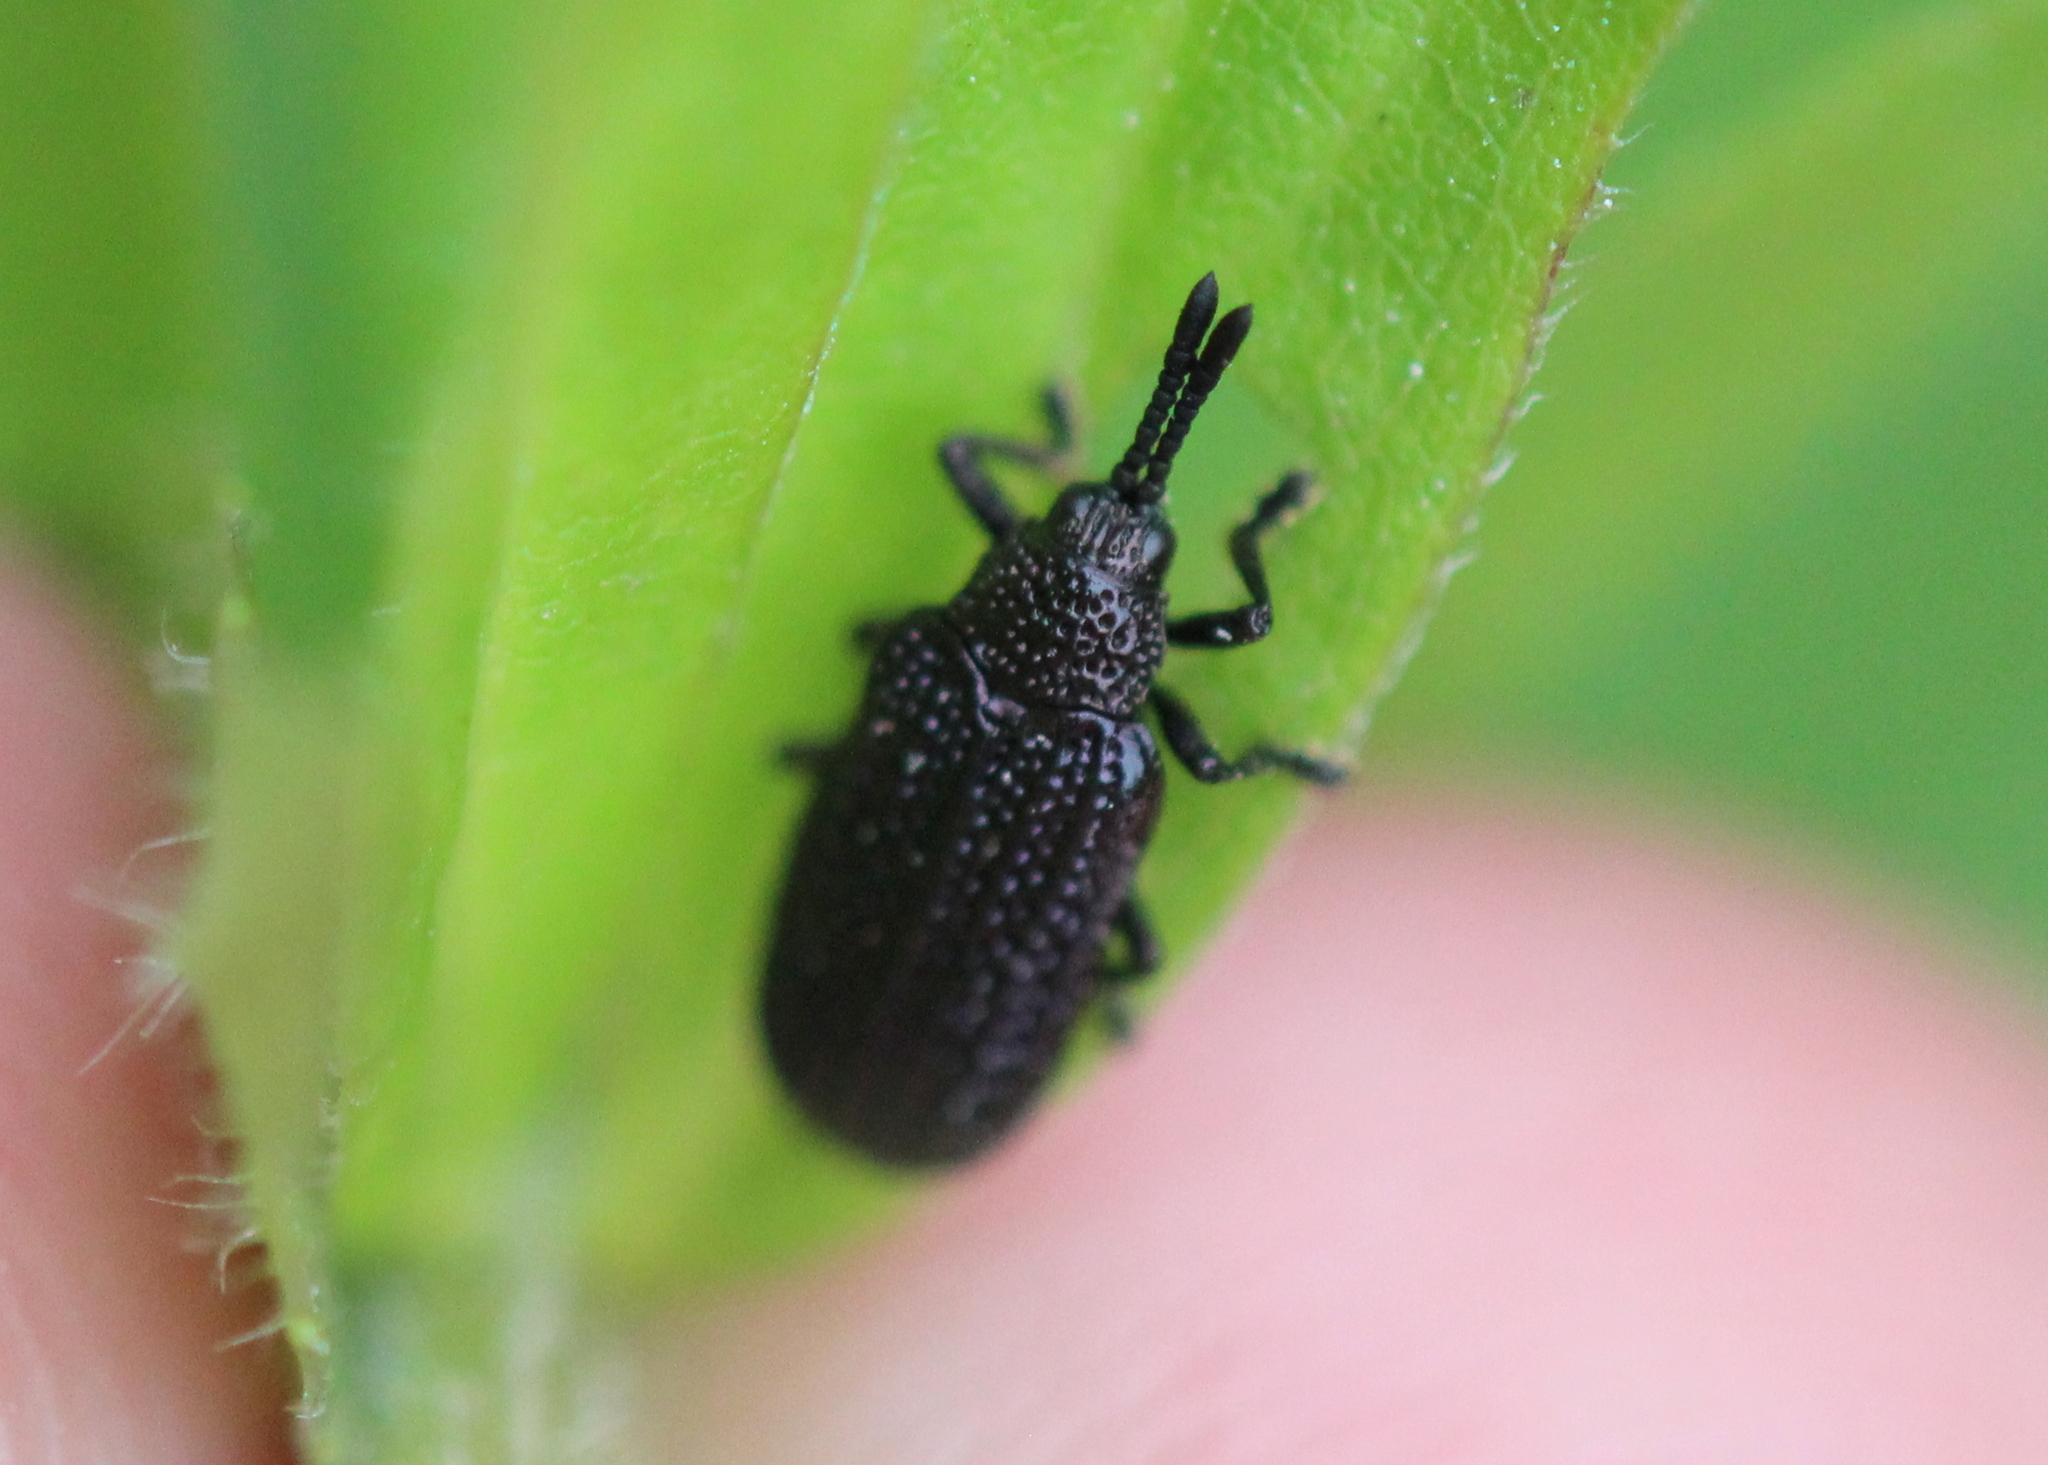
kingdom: Animalia
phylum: Arthropoda
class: Insecta
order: Coleoptera
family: Chrysomelidae
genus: Microrhopala
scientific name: Microrhopala excavata
